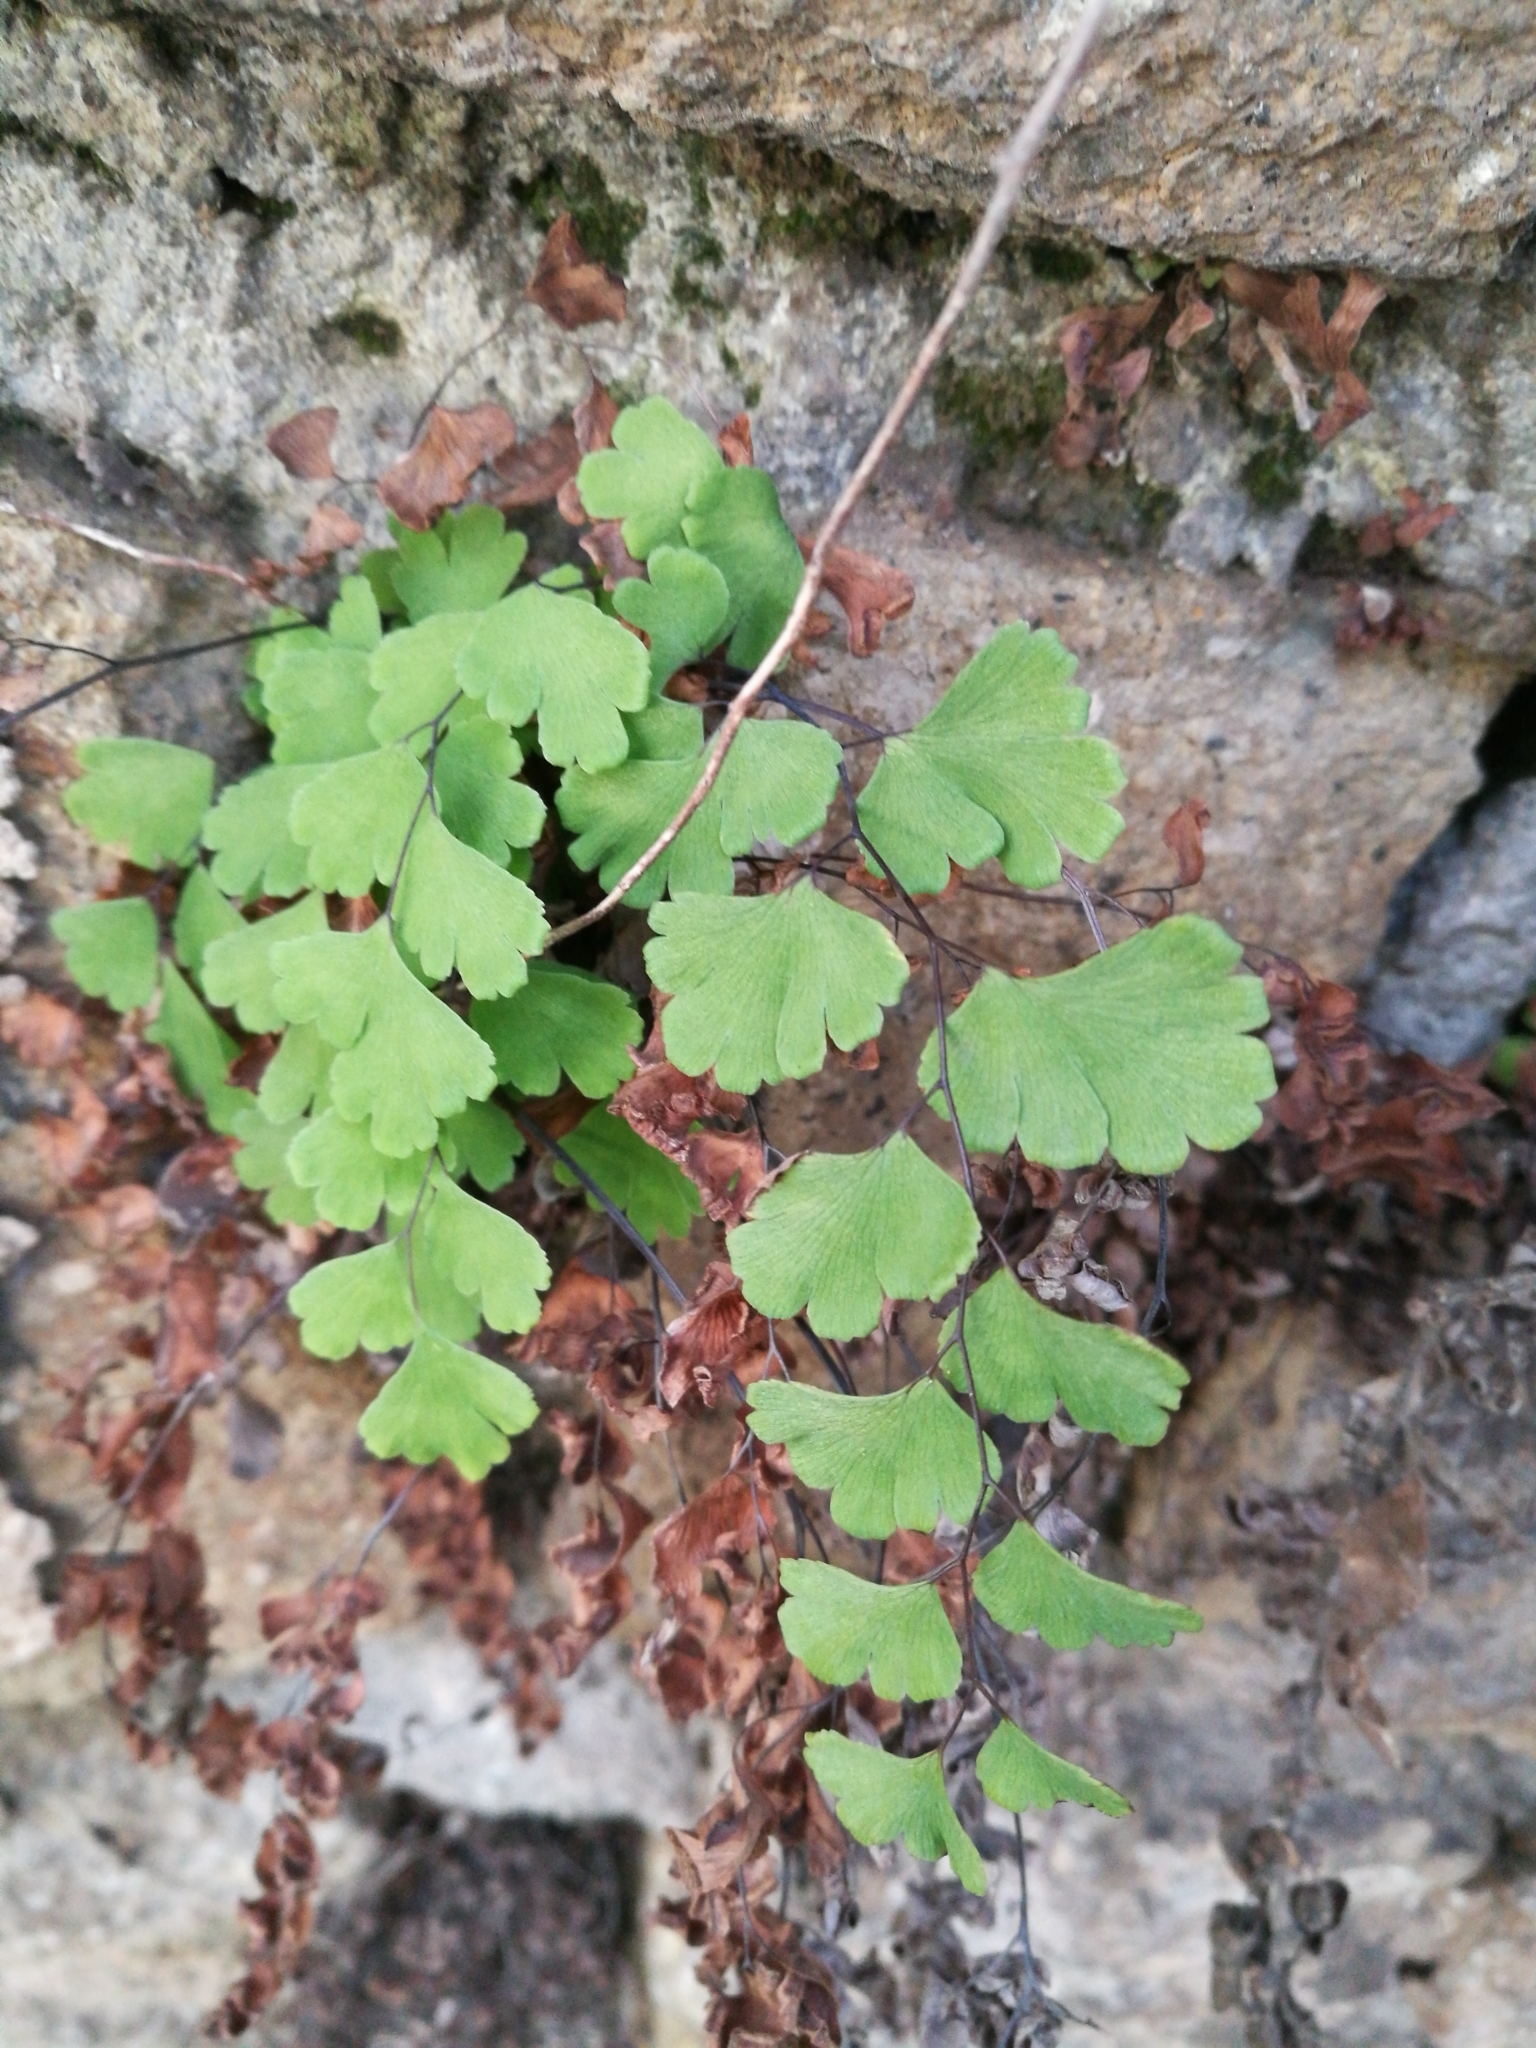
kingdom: Plantae
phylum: Tracheophyta
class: Polypodiopsida
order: Polypodiales
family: Pteridaceae
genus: Adiantum
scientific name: Adiantum capillus-veneris
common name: Maidenhair fern
